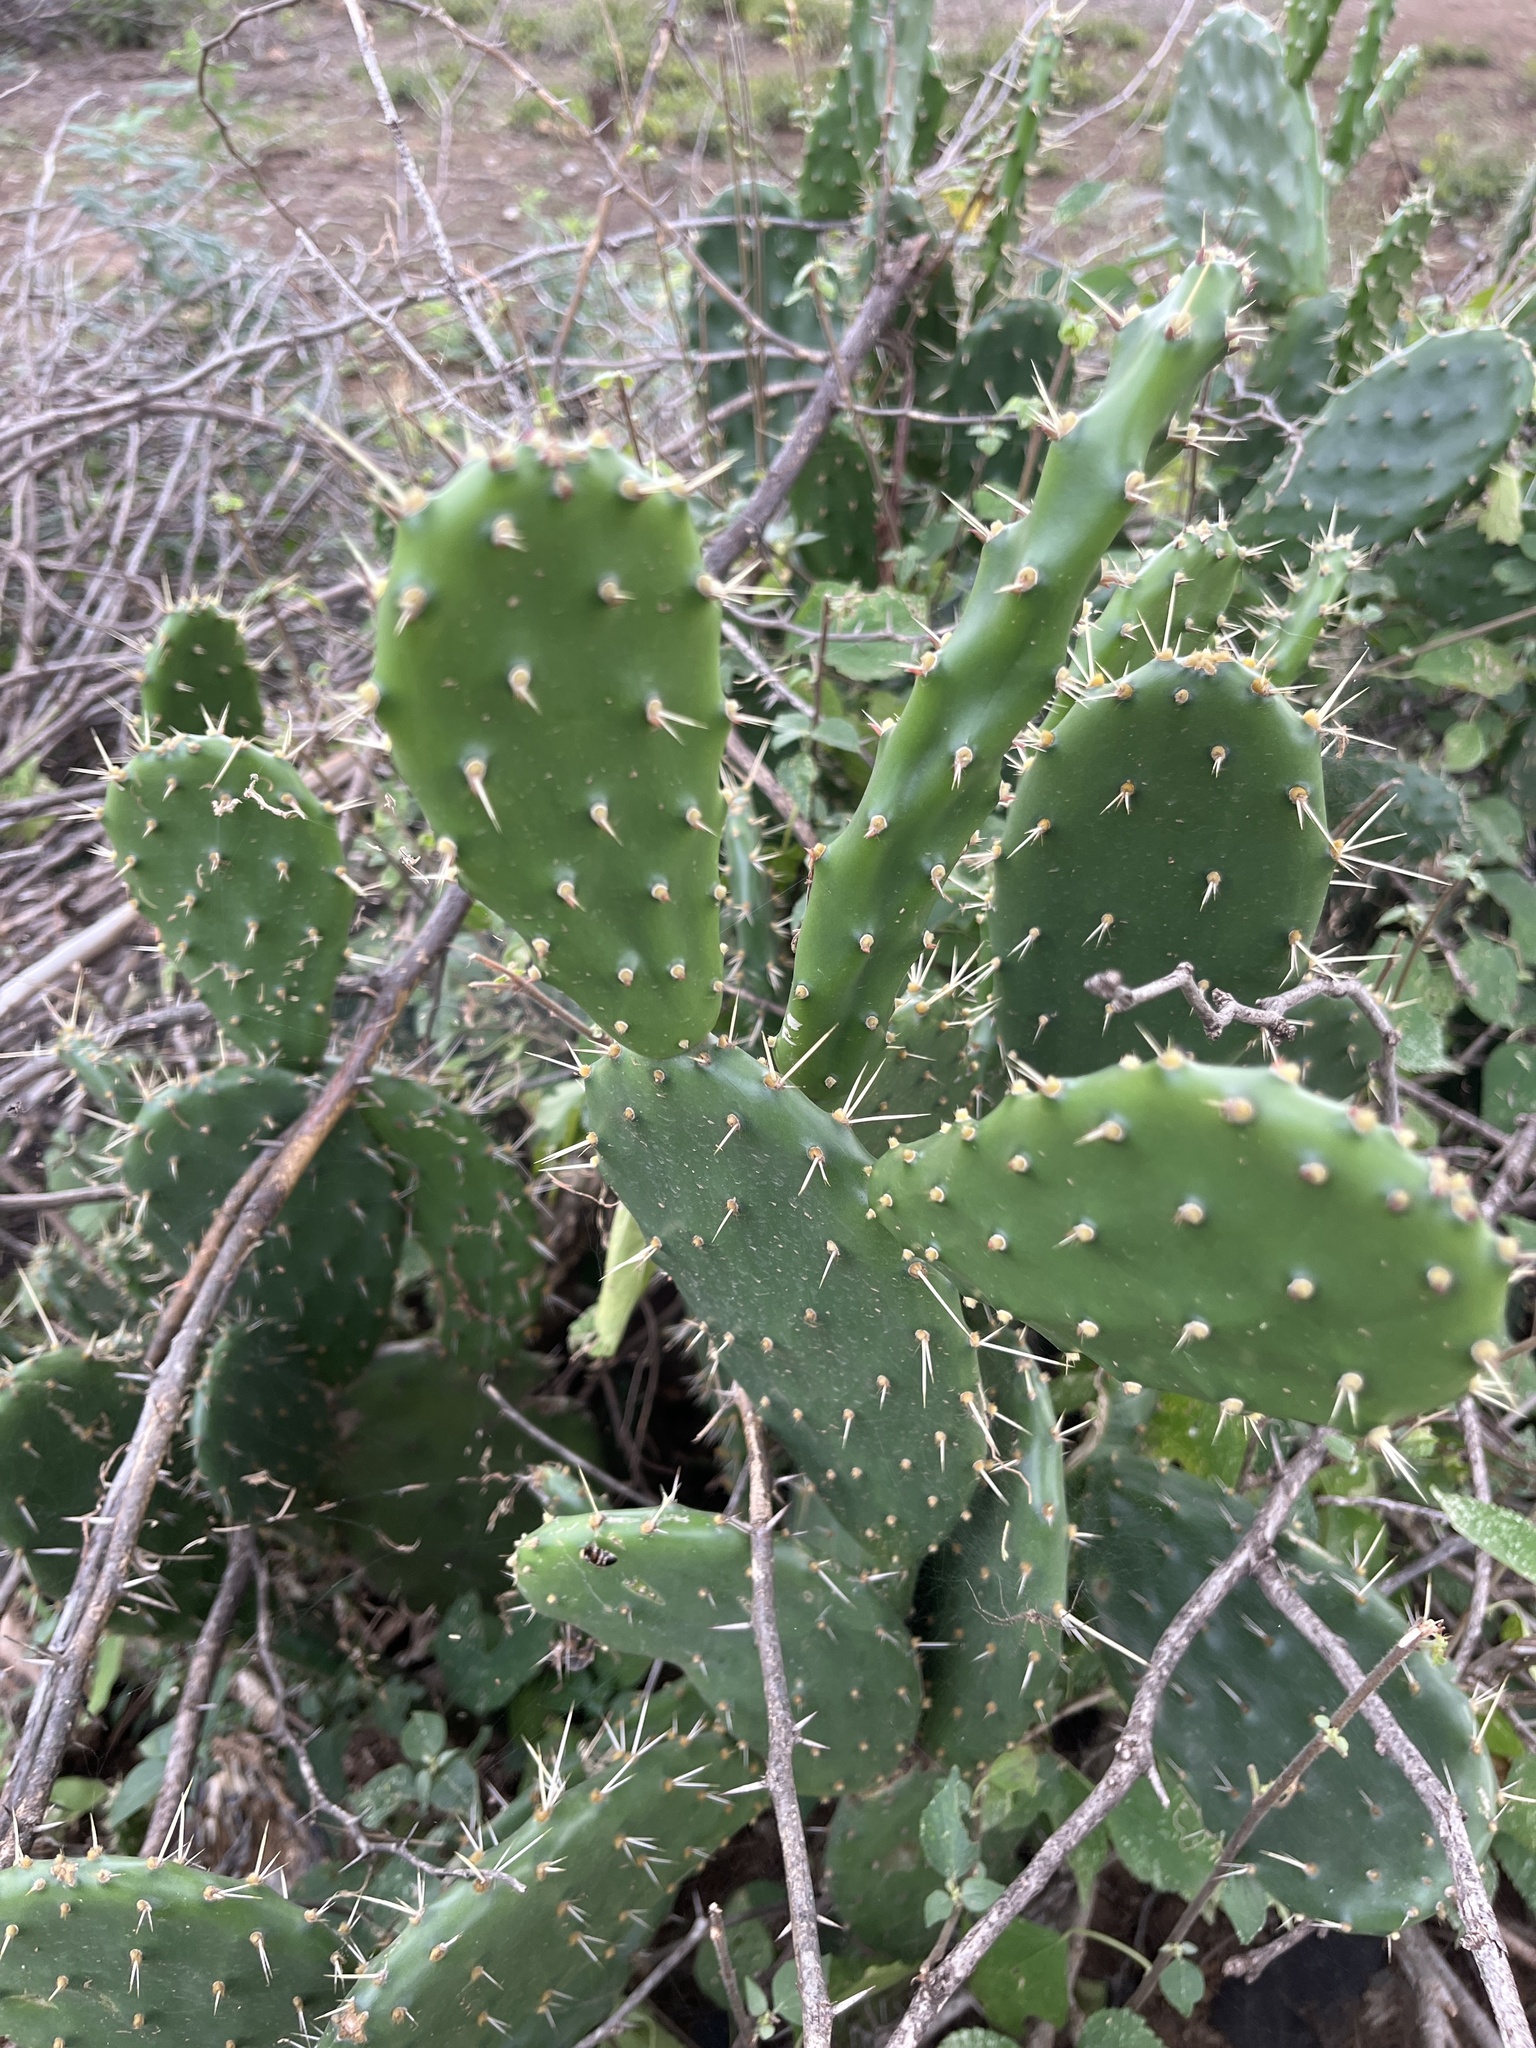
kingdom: Plantae
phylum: Tracheophyta
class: Magnoliopsida
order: Caryophyllales
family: Cactaceae
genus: Opuntia
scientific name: Opuntia ficus-indica
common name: Barbary fig
